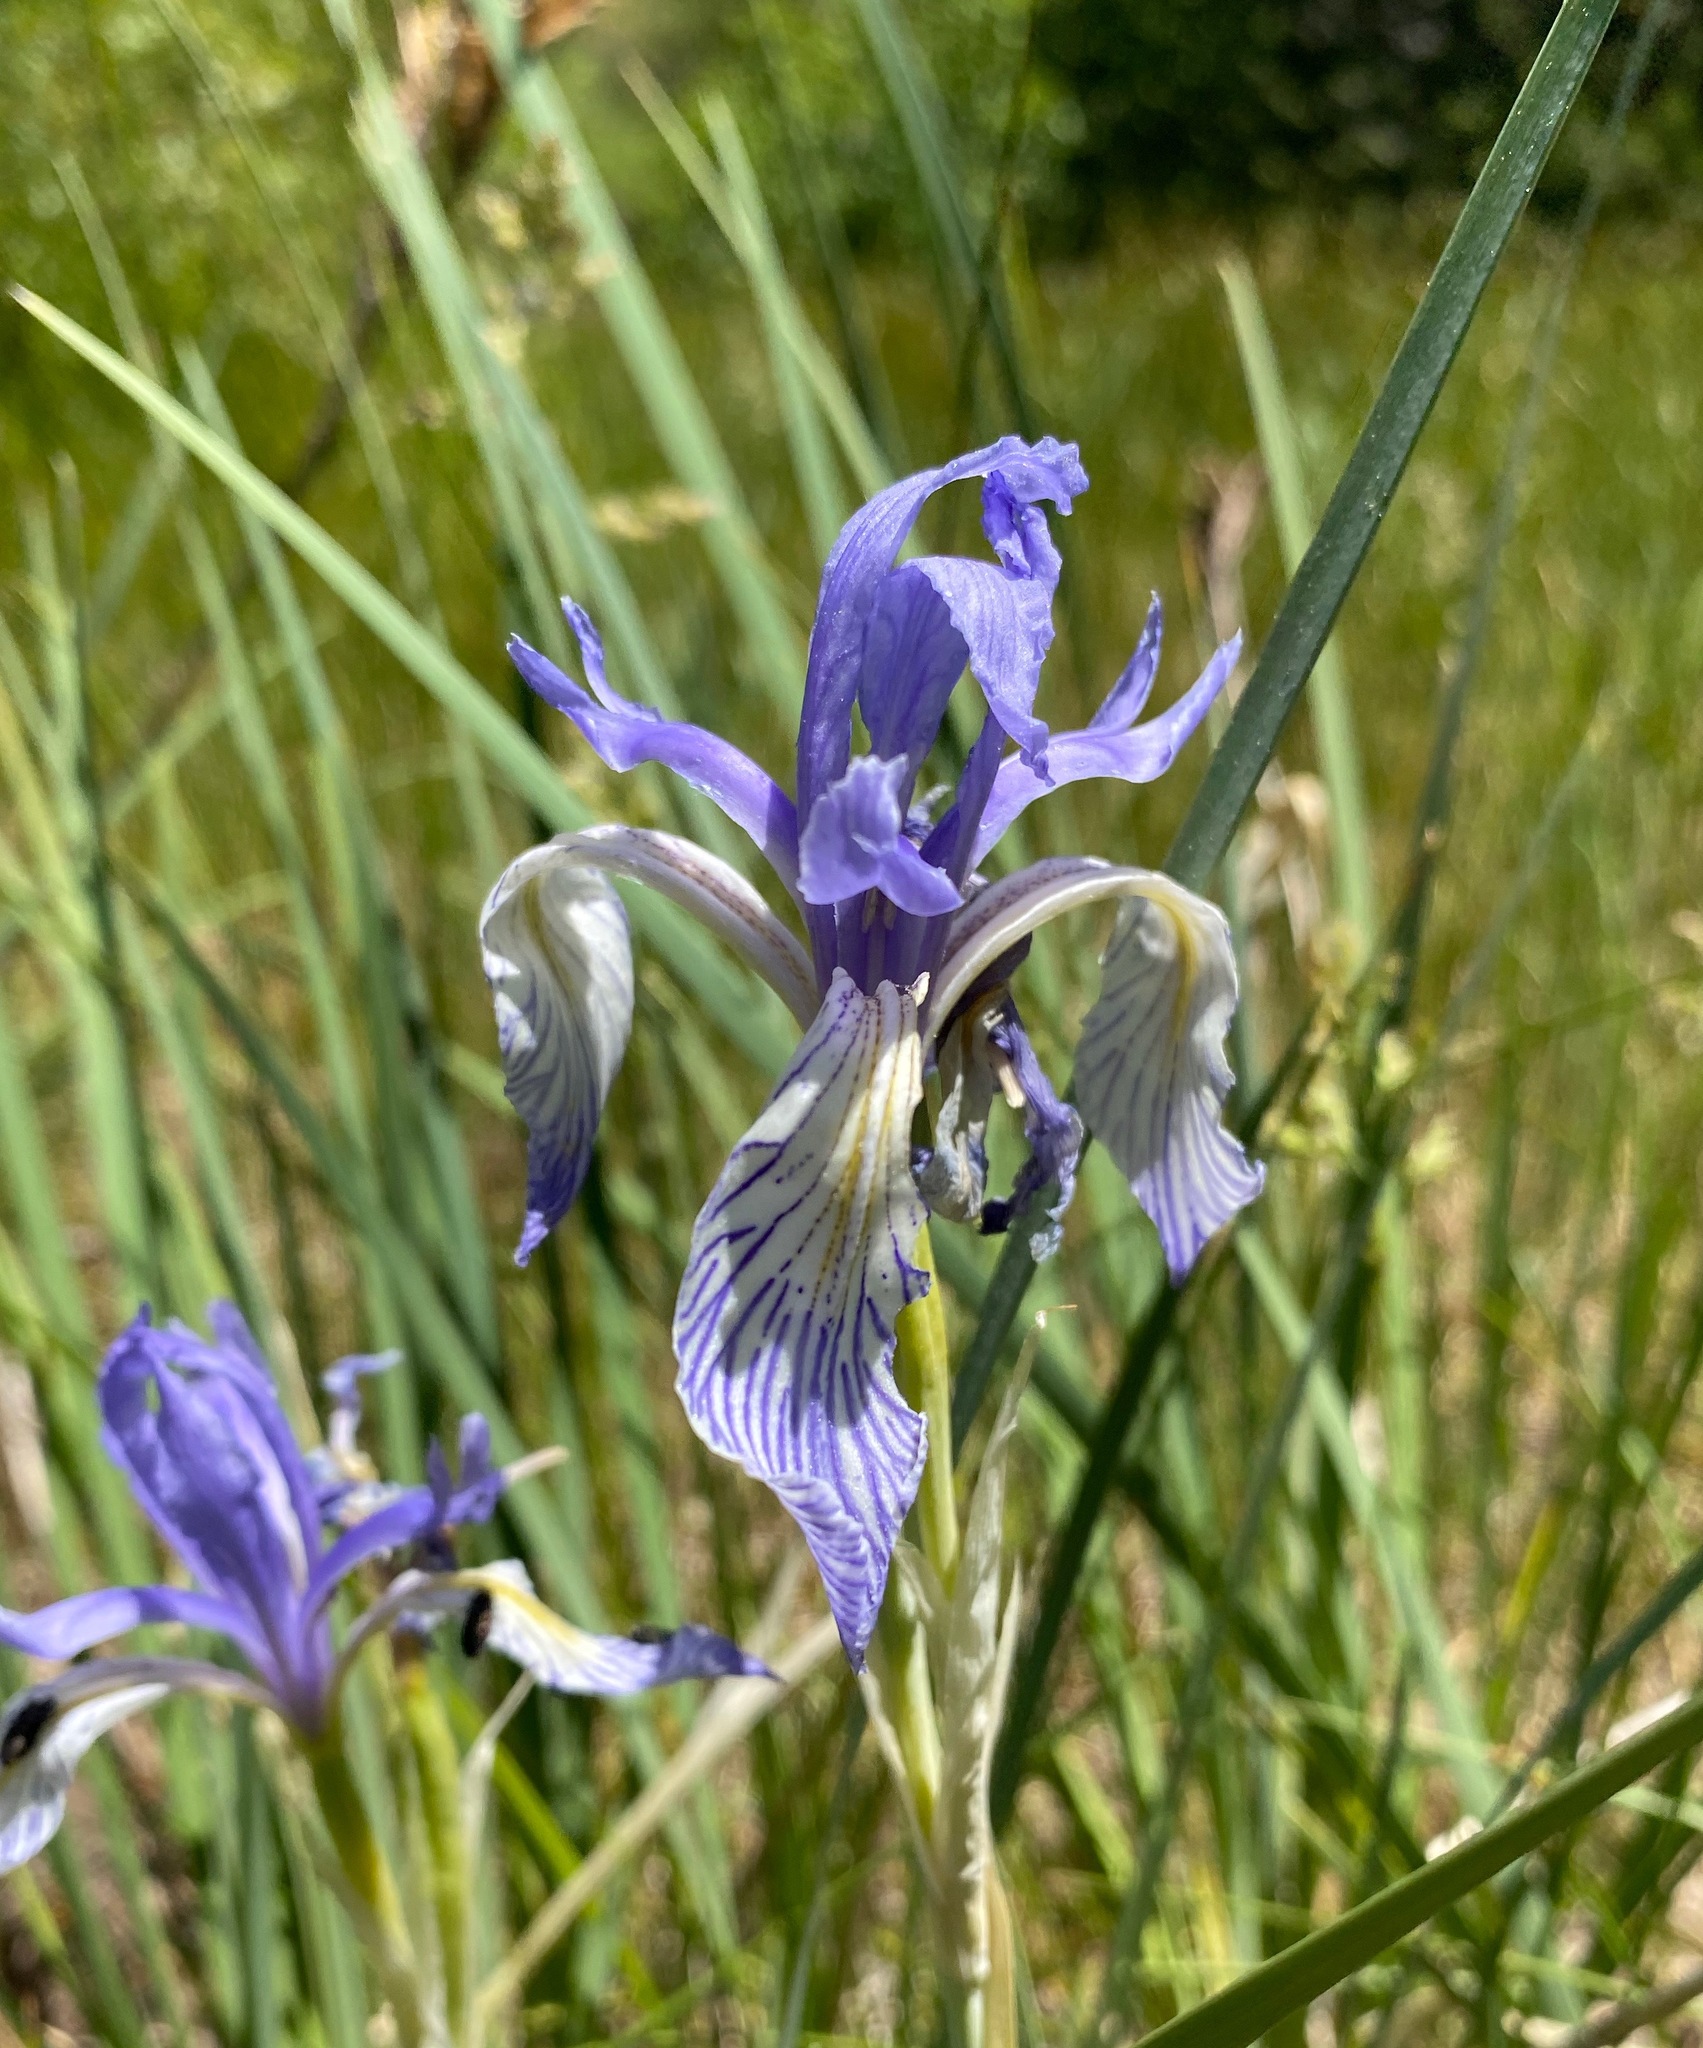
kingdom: Plantae
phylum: Tracheophyta
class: Liliopsida
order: Asparagales
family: Iridaceae
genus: Iris
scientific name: Iris missouriensis
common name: Rocky mountain iris
